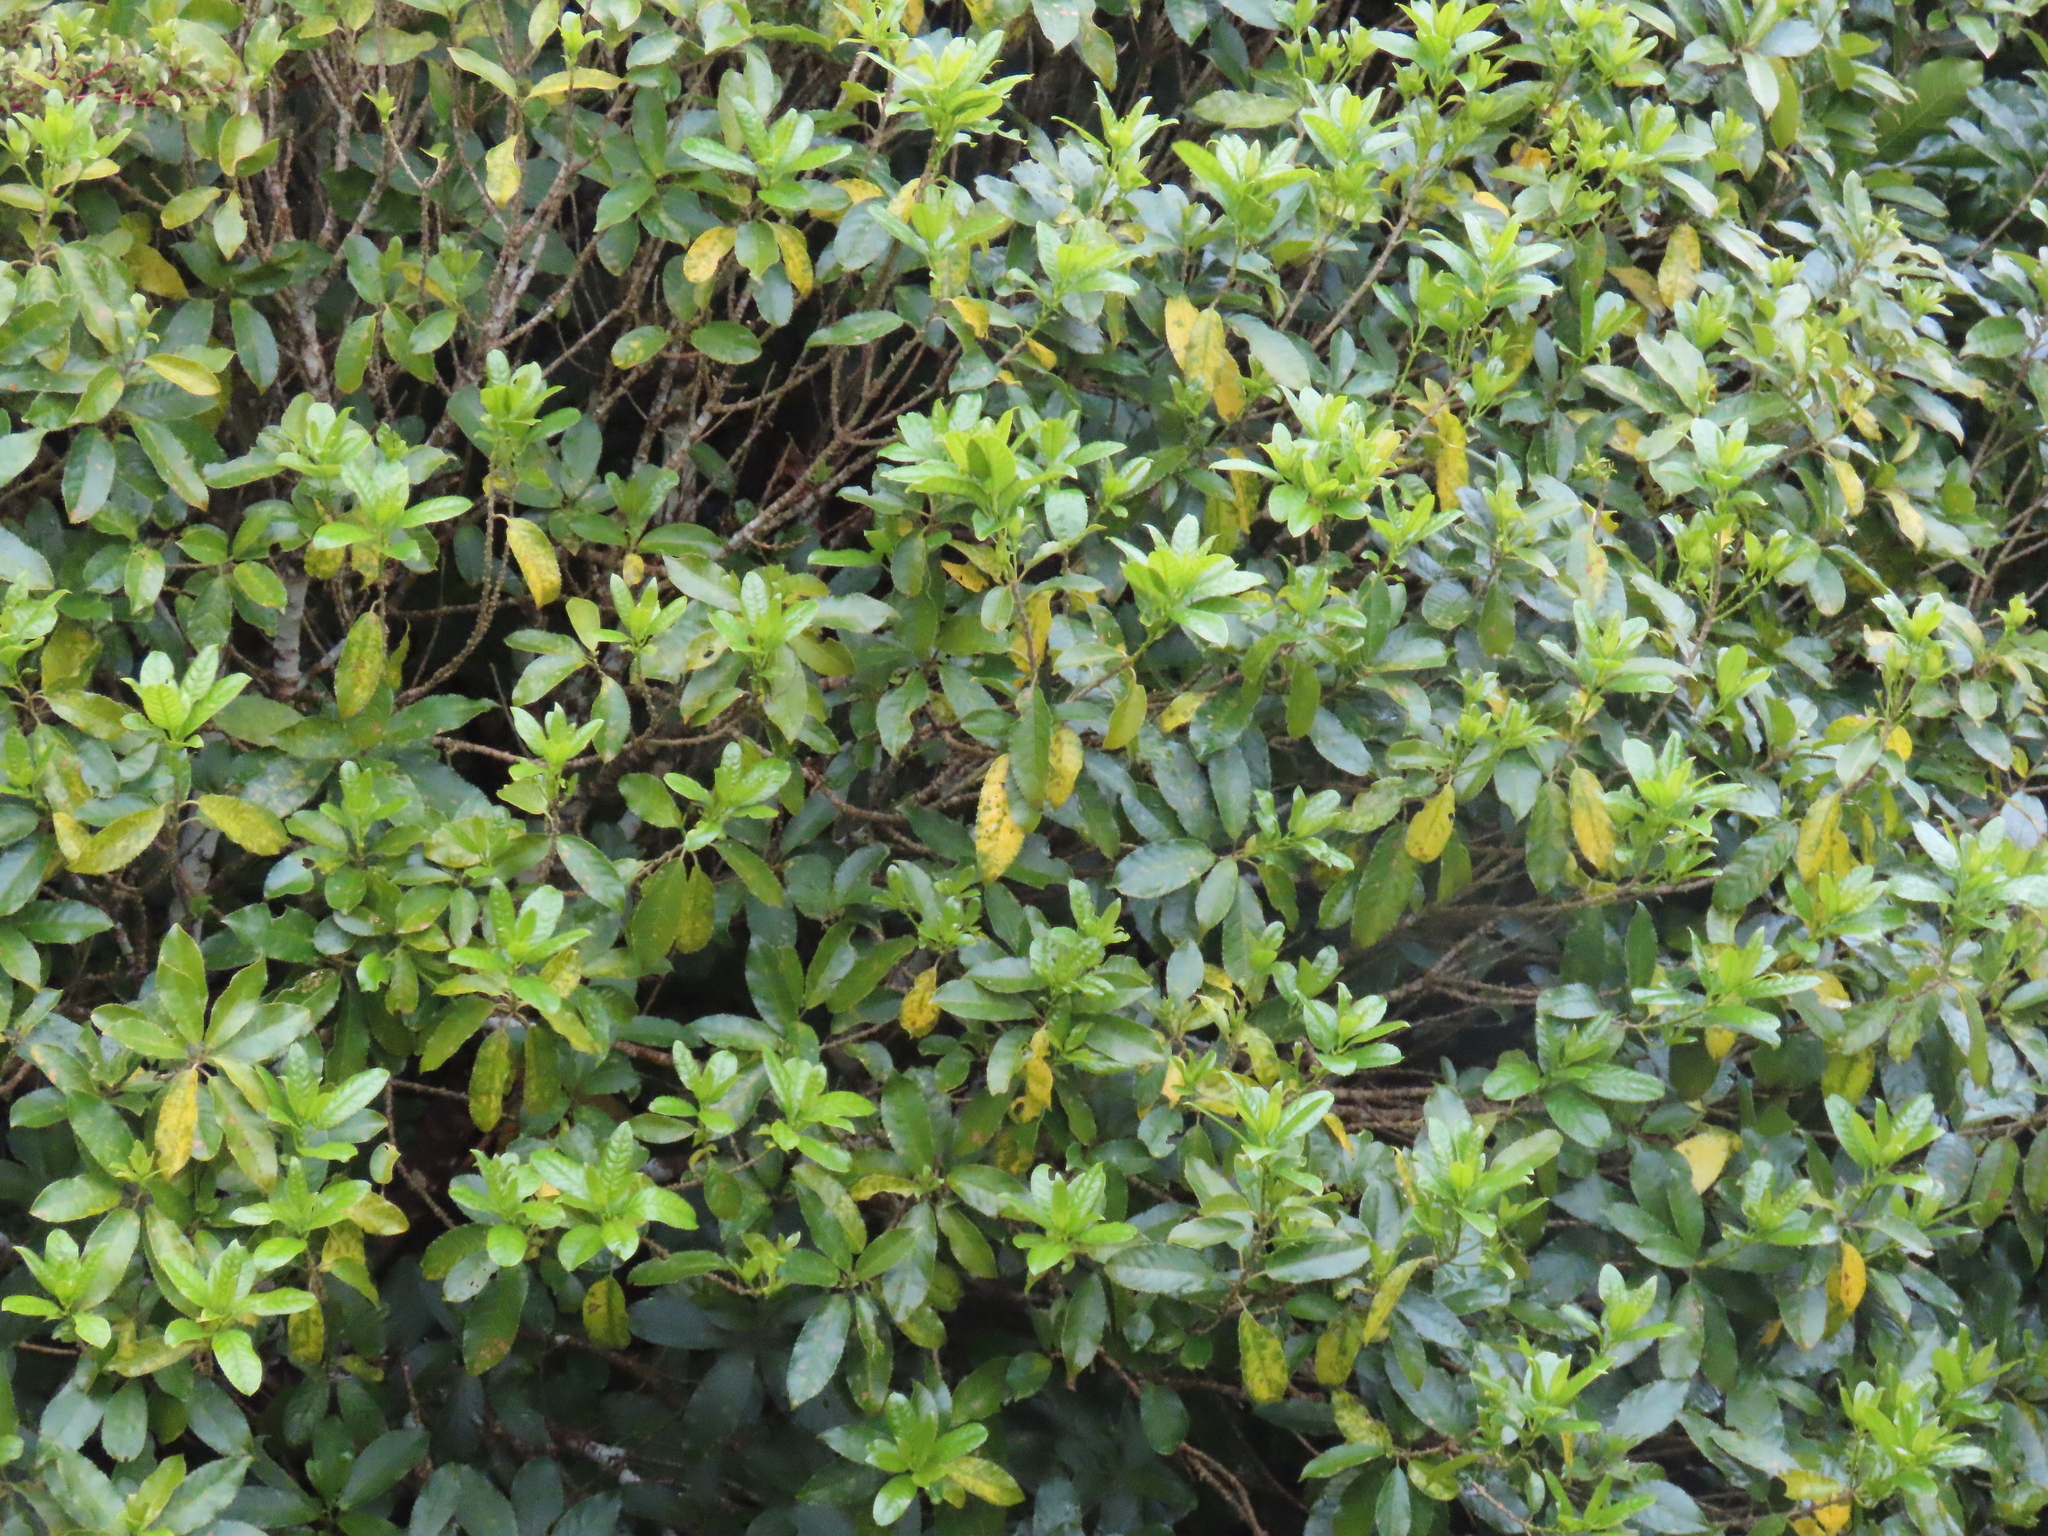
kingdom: Plantae
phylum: Tracheophyta
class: Magnoliopsida
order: Malpighiales
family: Violaceae
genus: Melicytus
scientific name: Melicytus ramiflorus
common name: Mahoe
